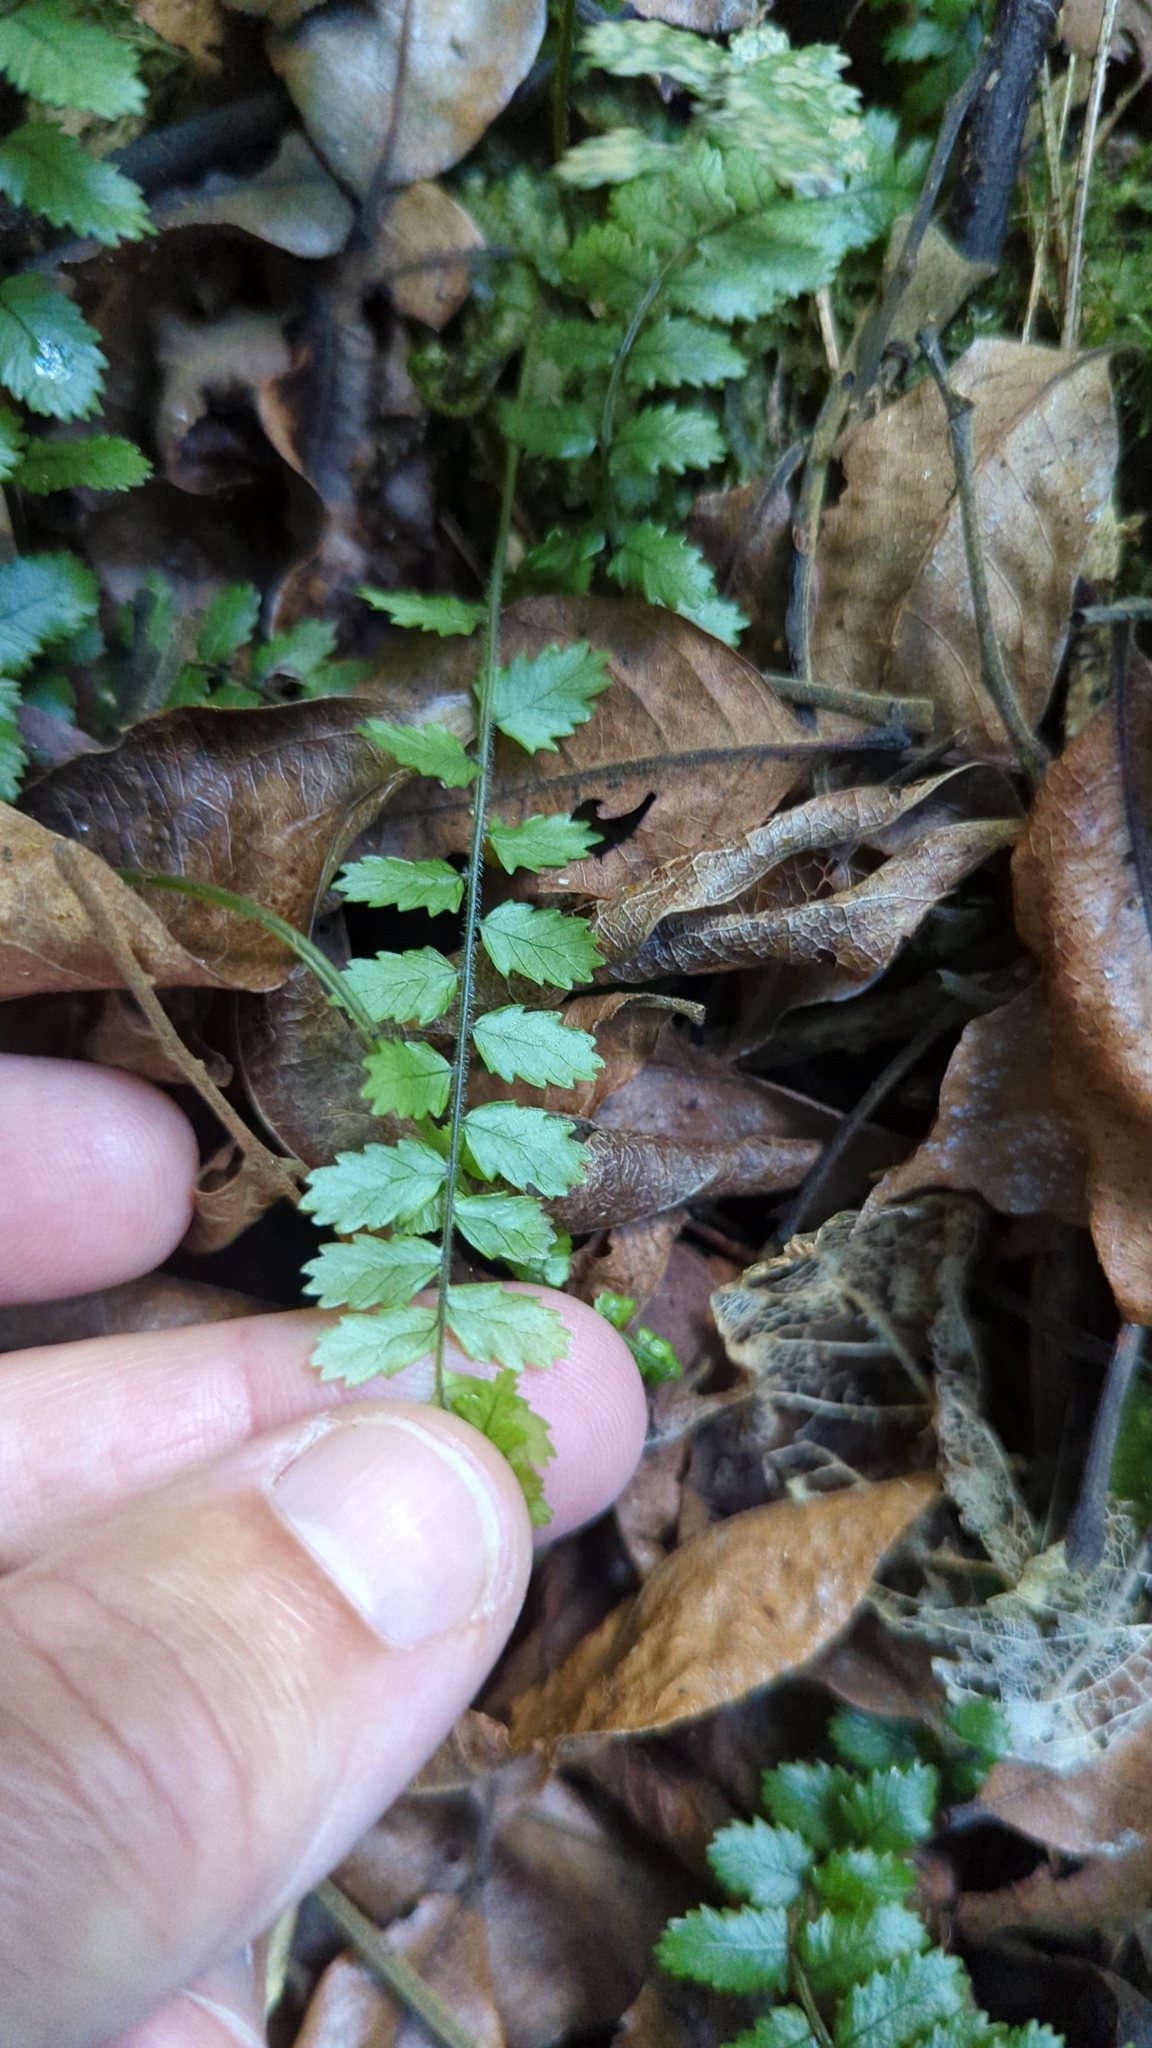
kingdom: Plantae
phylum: Tracheophyta
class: Polypodiopsida
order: Polypodiales
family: Blechnaceae
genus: Icarus
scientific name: Icarus filiformis
